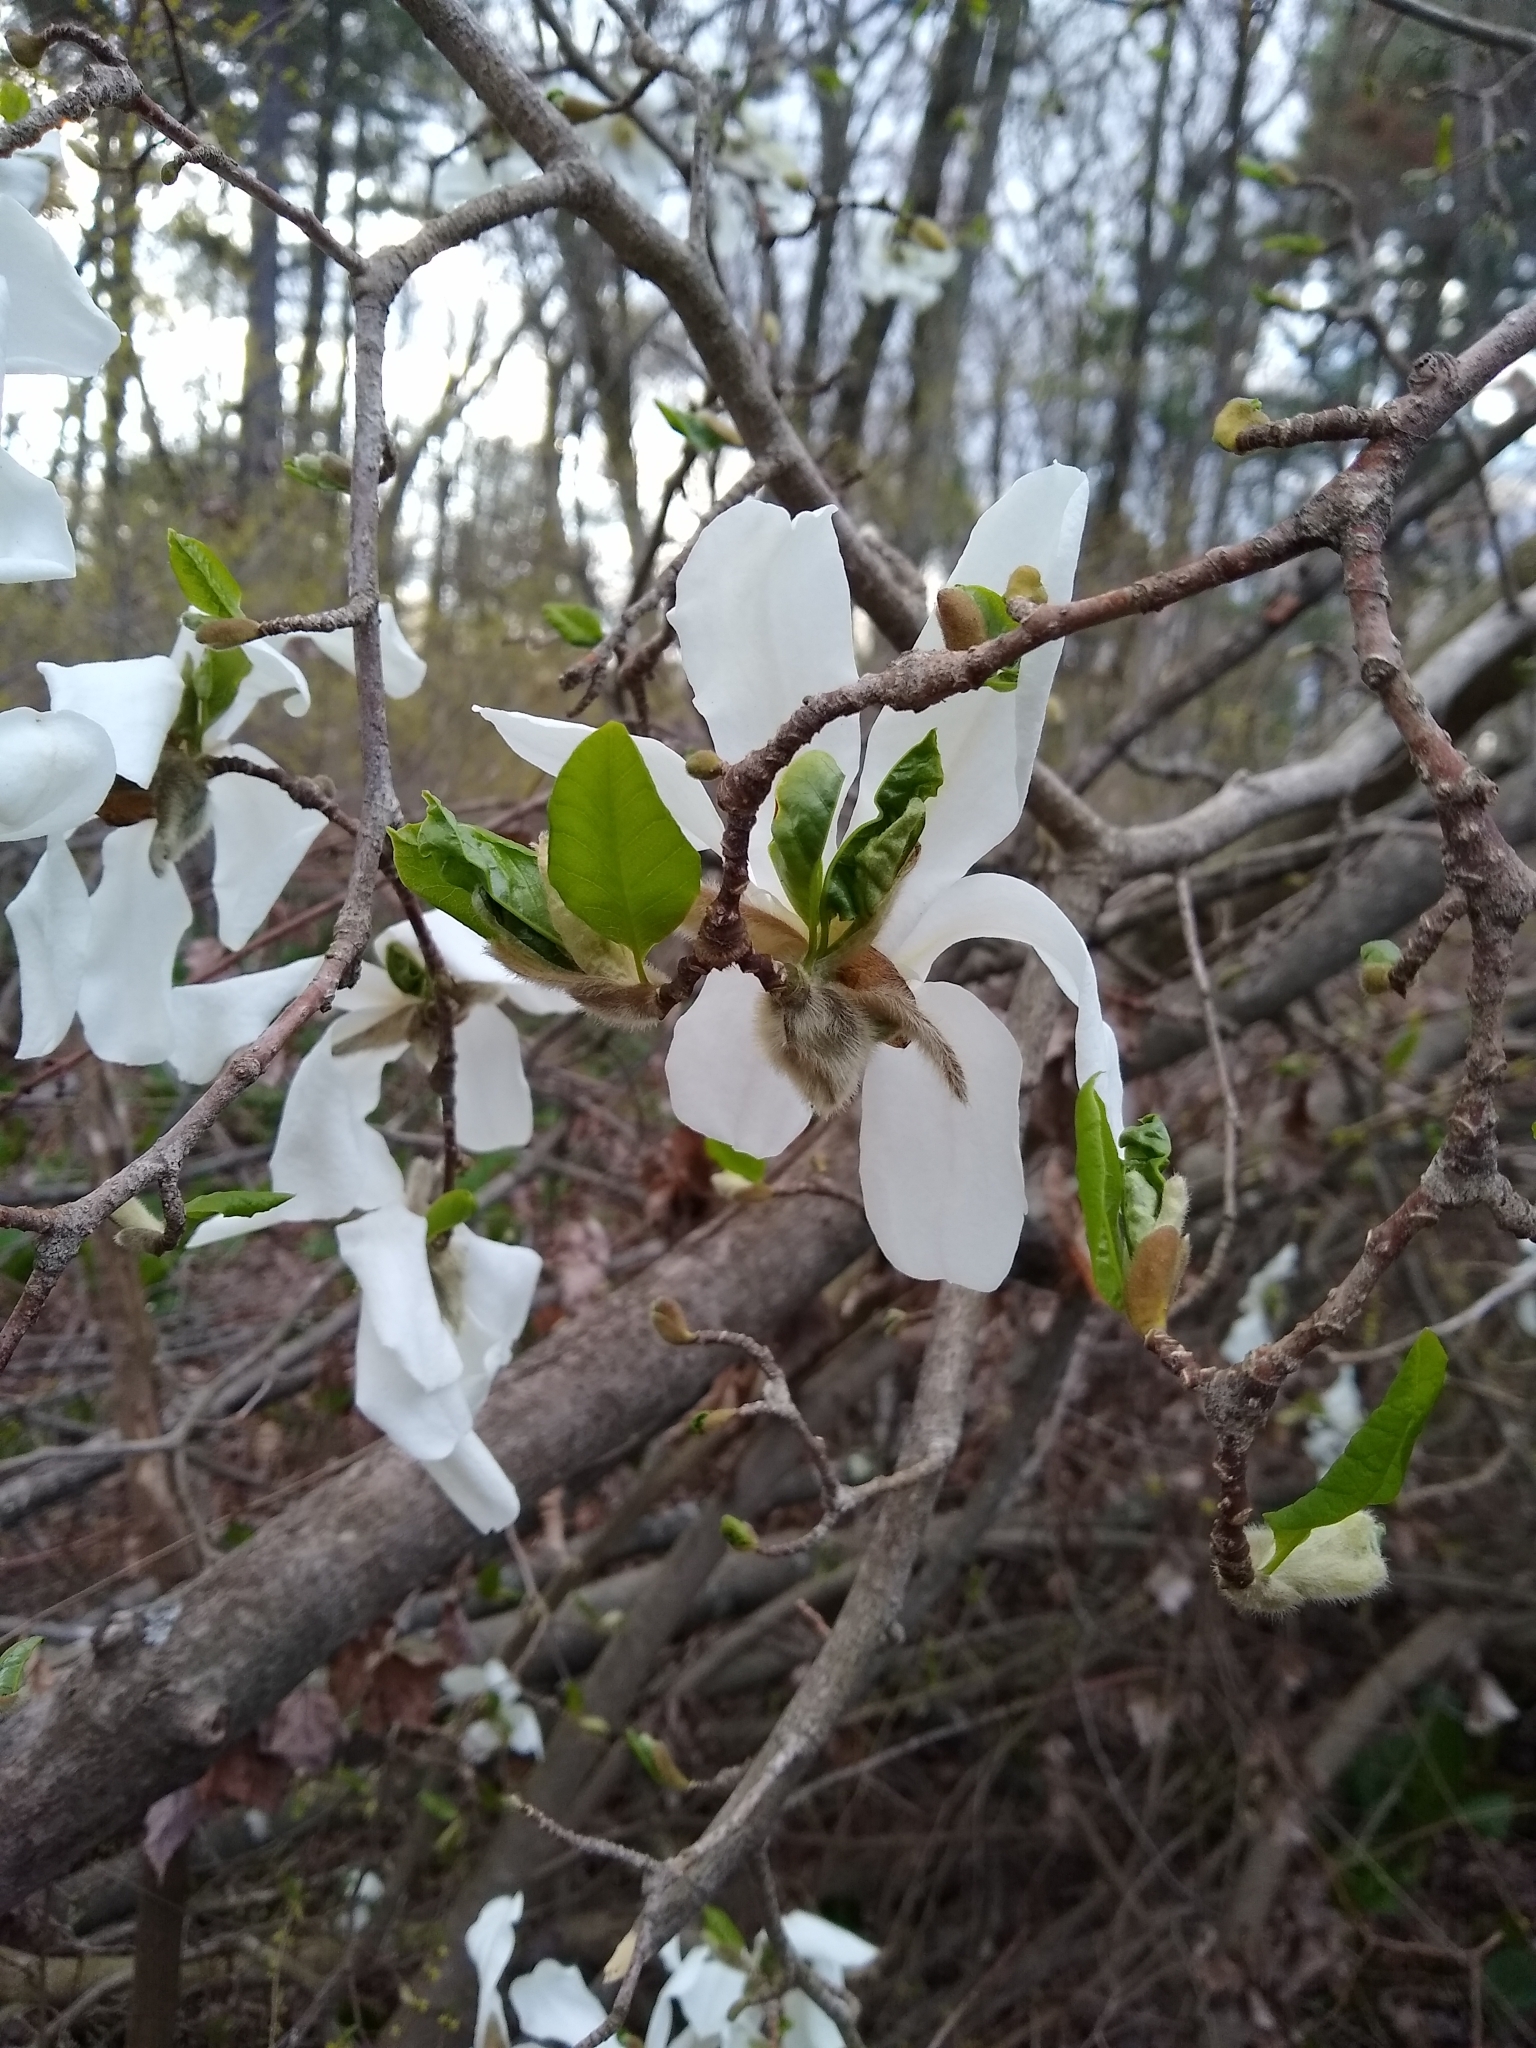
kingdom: Plantae
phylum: Tracheophyta
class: Magnoliopsida
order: Magnoliales
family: Magnoliaceae
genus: Magnolia
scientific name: Magnolia kobus
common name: Kobus magnolia
